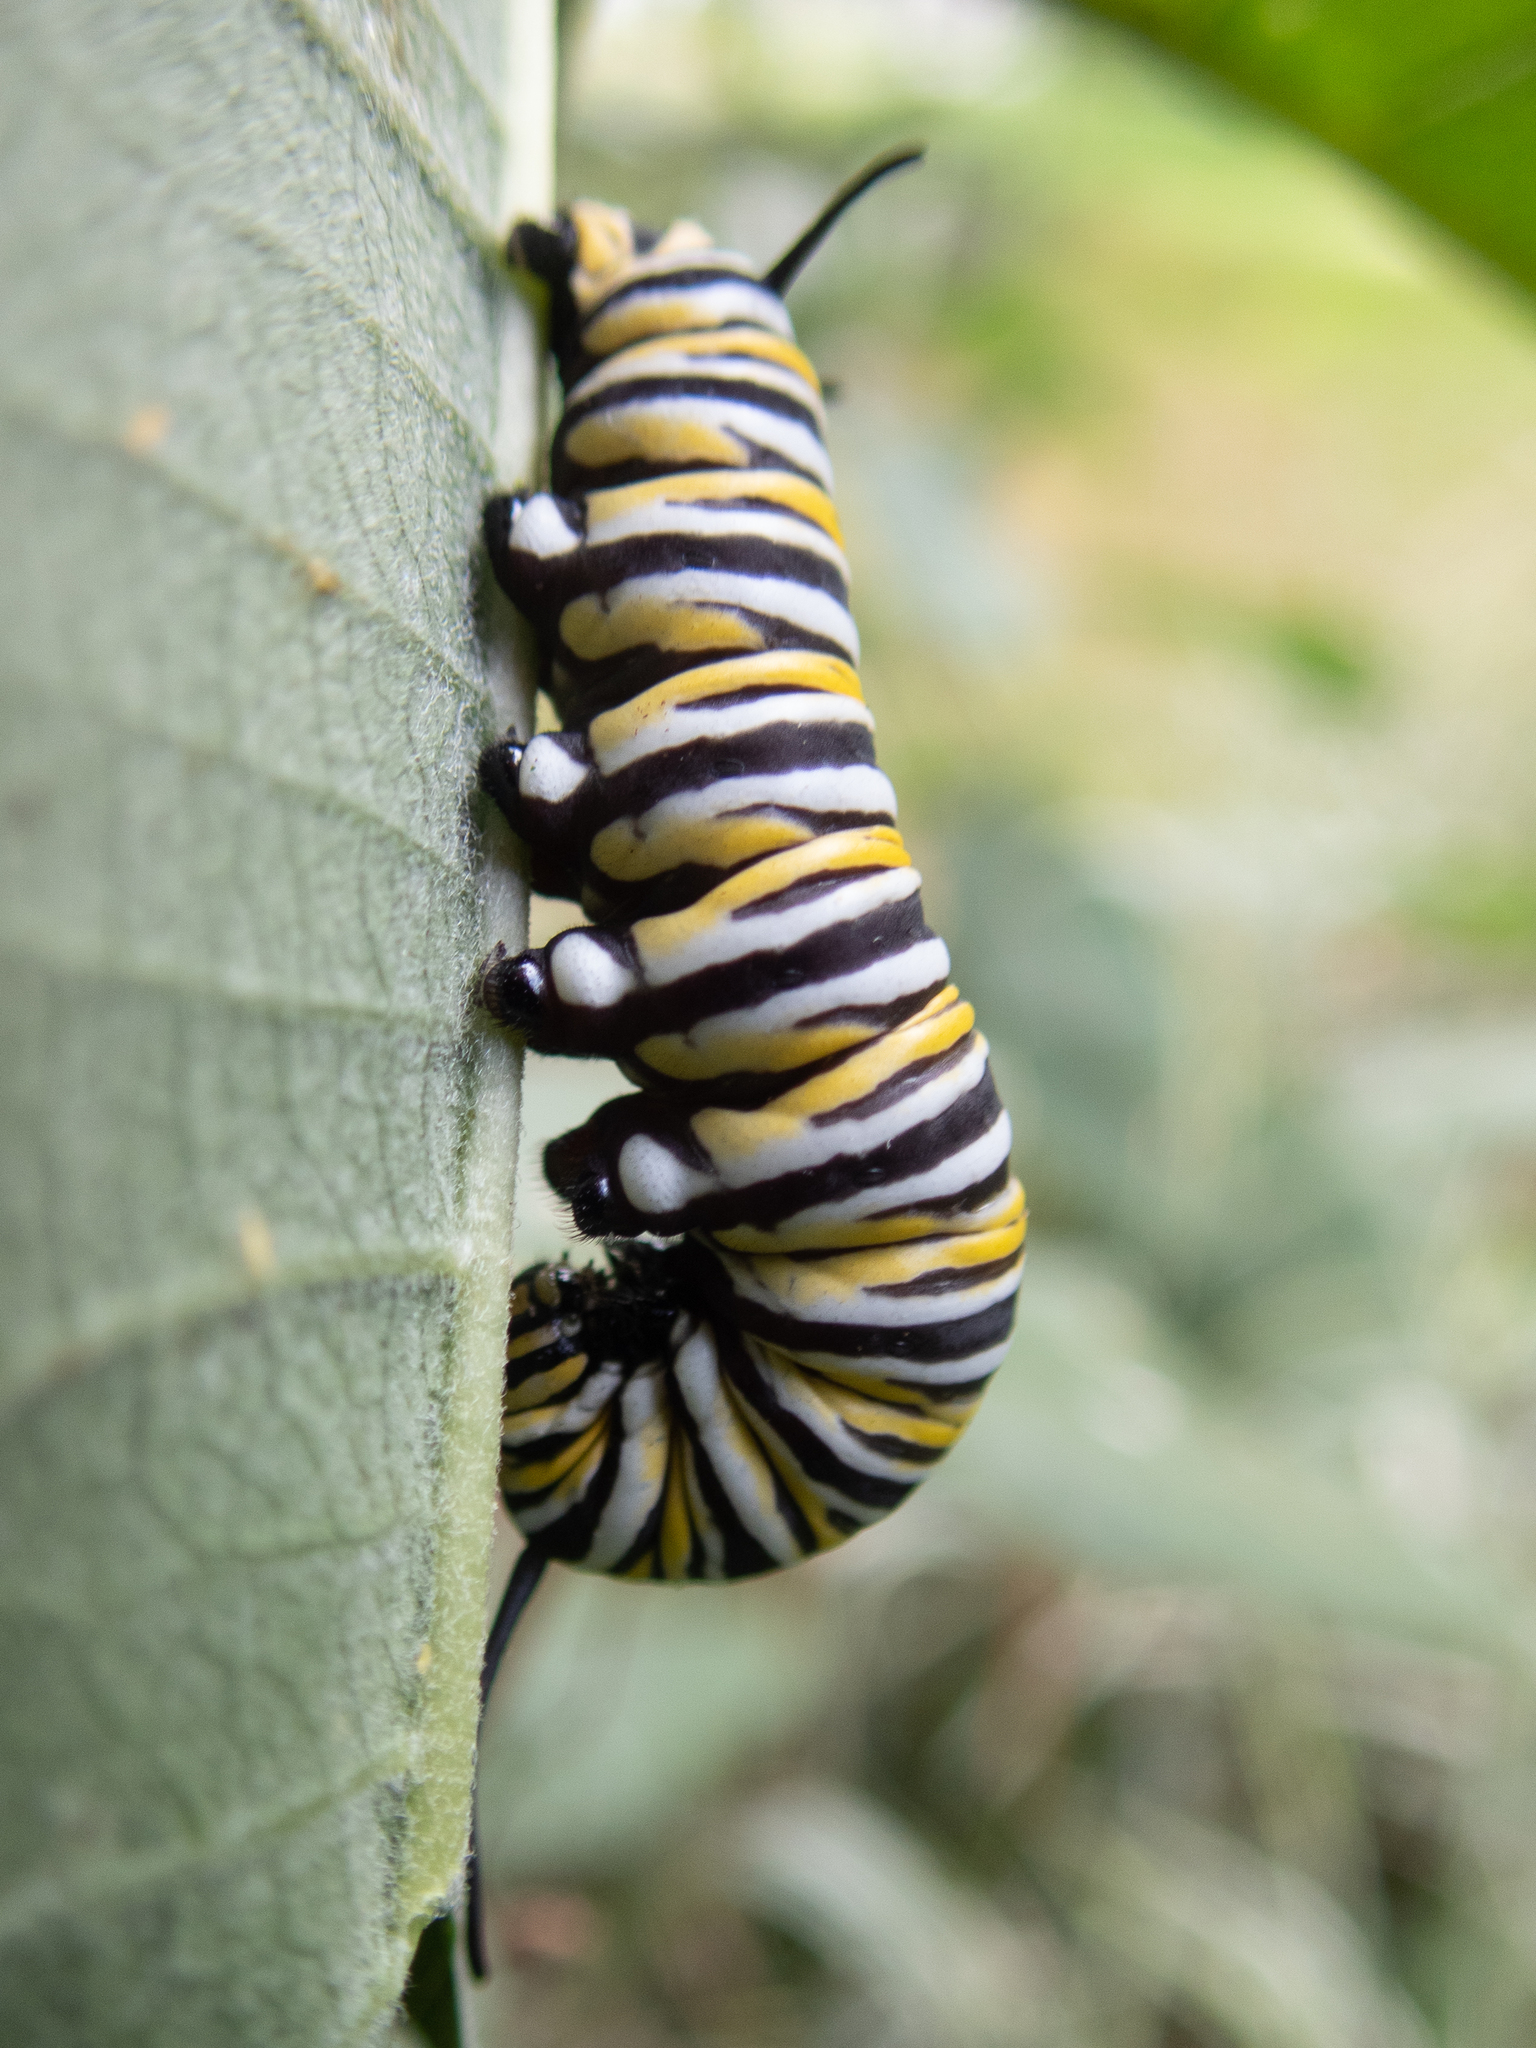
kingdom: Animalia
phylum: Arthropoda
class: Insecta
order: Lepidoptera
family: Nymphalidae
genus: Danaus
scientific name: Danaus plexippus
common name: Monarch
